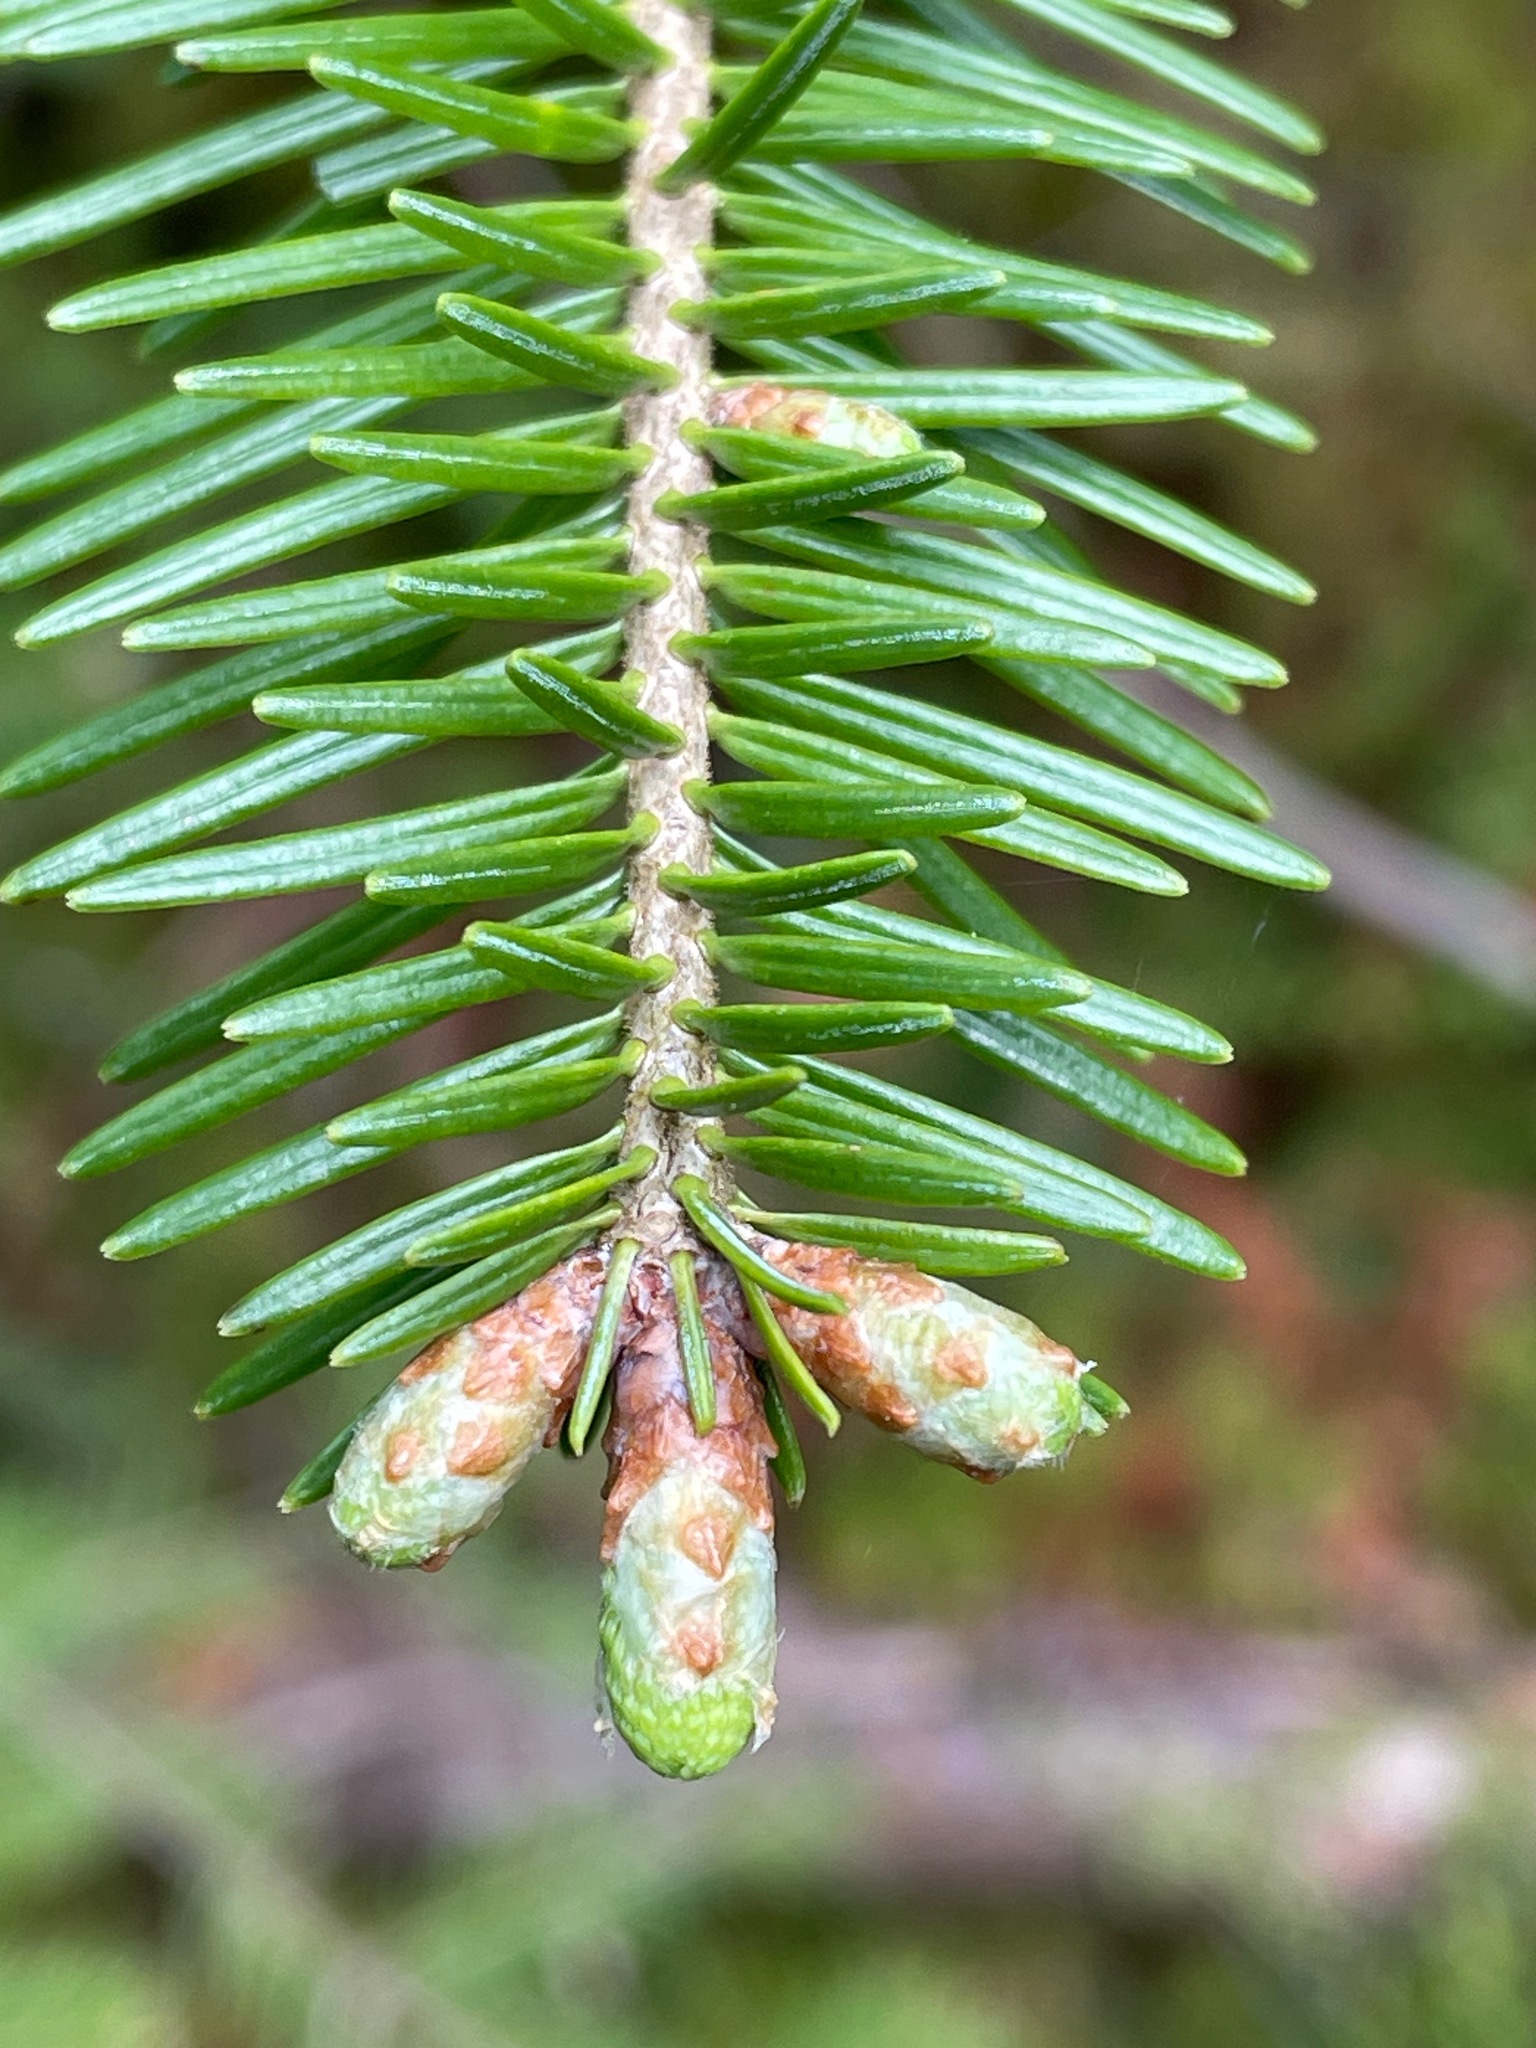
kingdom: Plantae
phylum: Tracheophyta
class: Pinopsida
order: Pinales
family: Pinaceae
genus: Abies
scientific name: Abies balsamea
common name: Balsam fir
